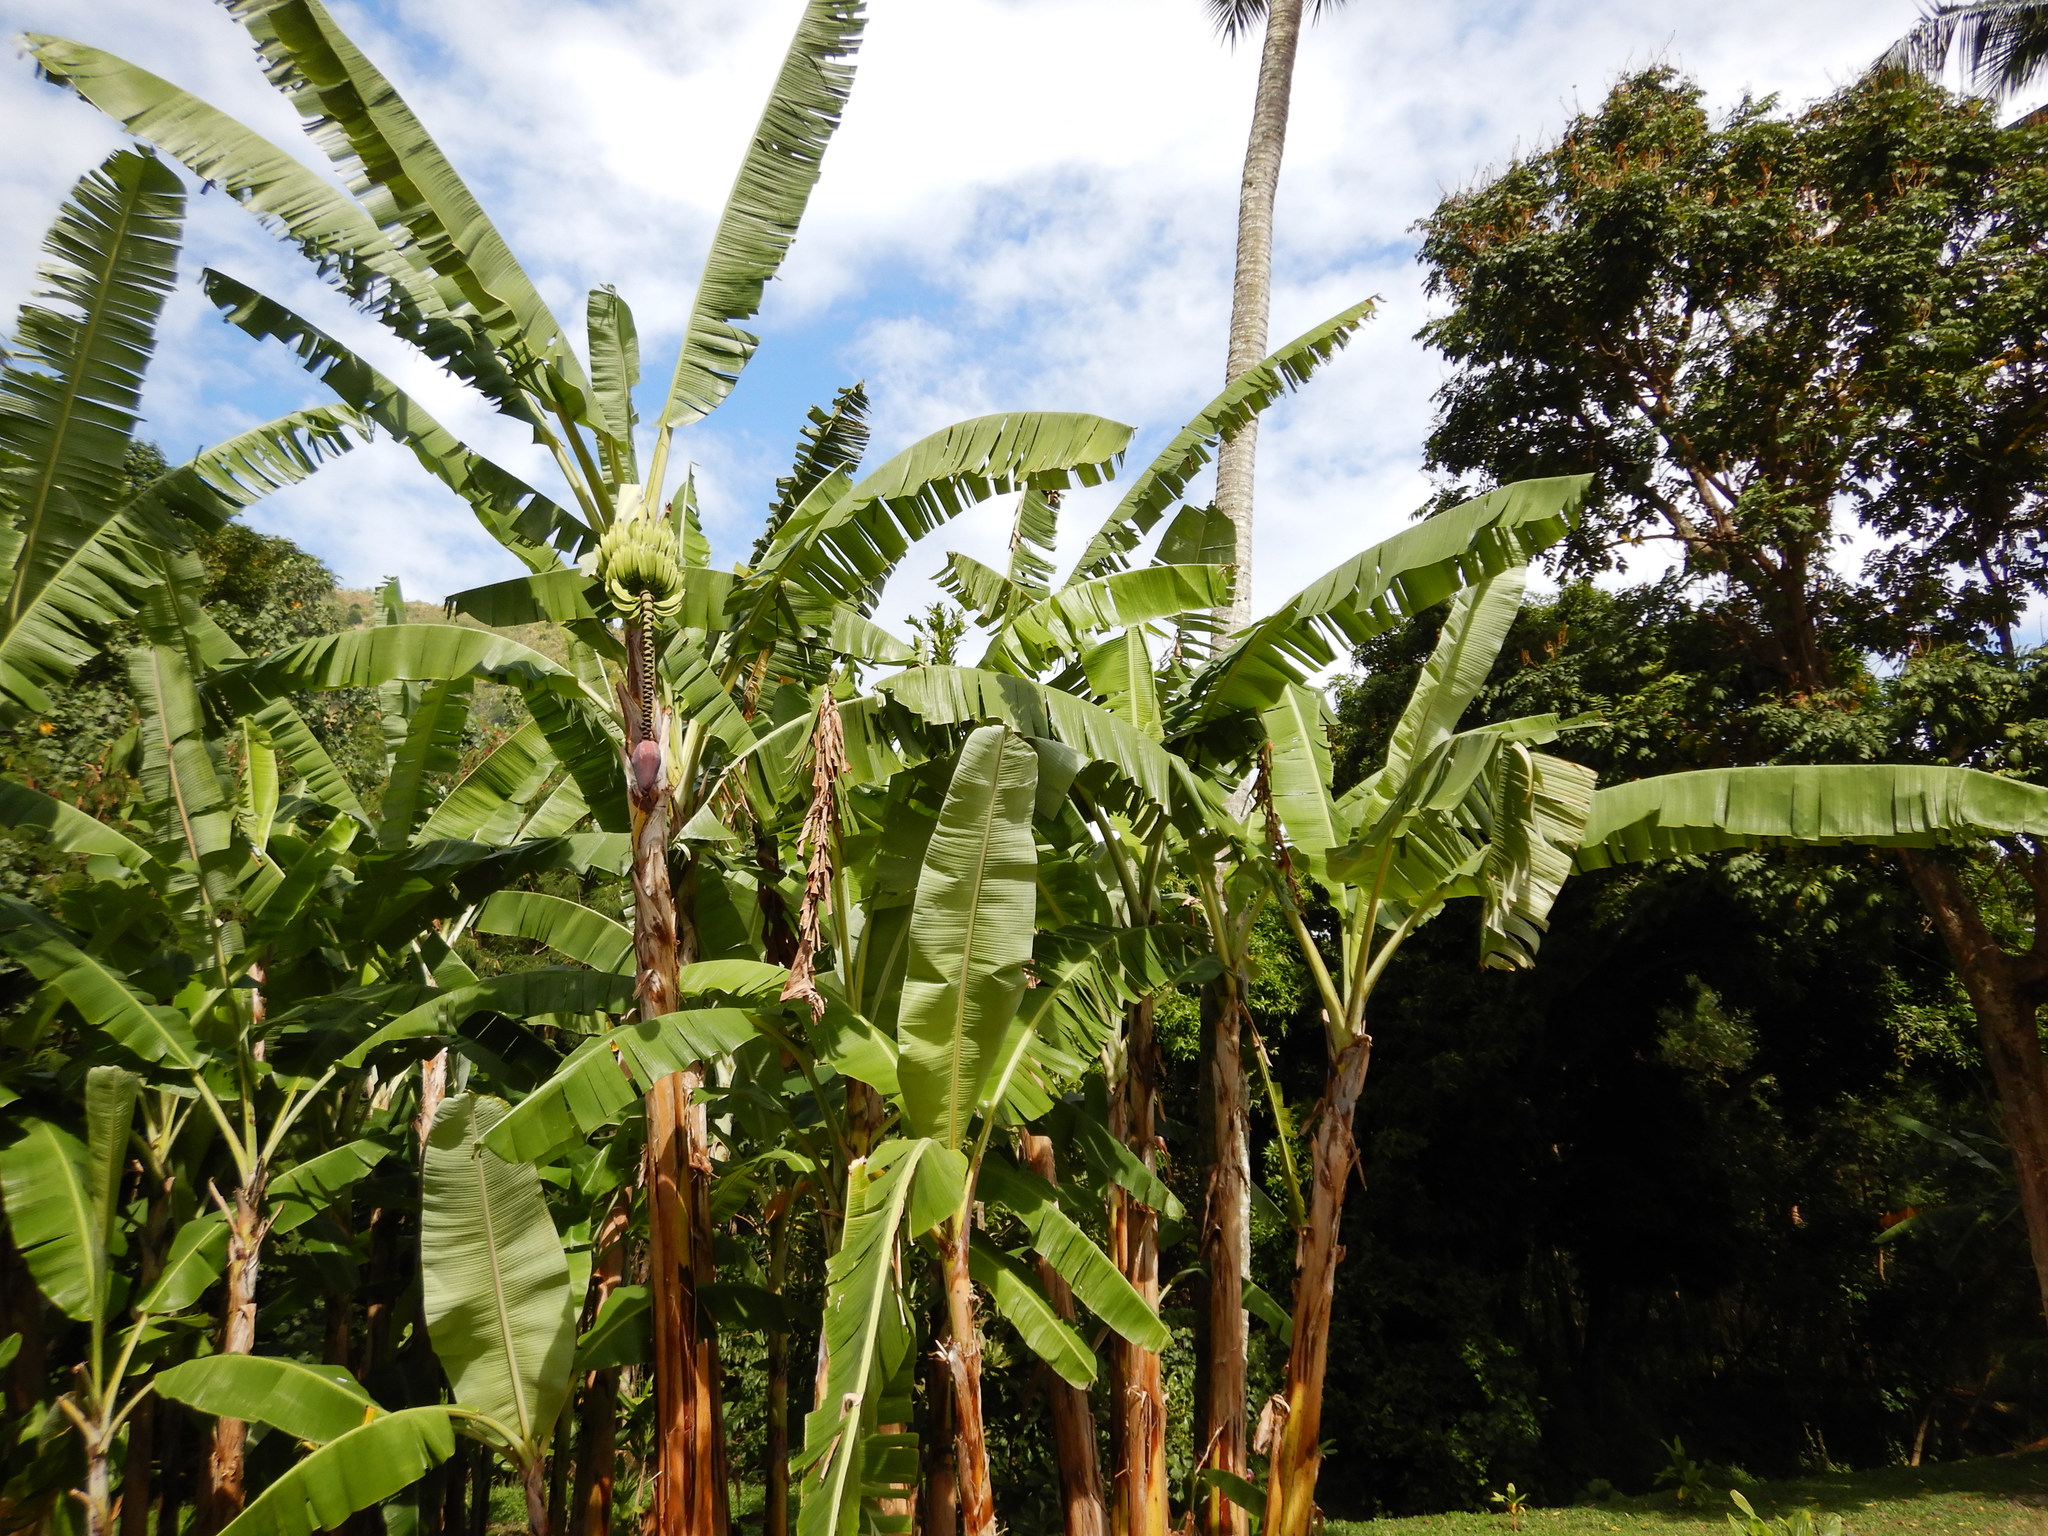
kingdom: Plantae
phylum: Tracheophyta
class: Liliopsida
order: Zingiberales
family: Musaceae
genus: Musa
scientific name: Musa paradisiaca
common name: French plantain
